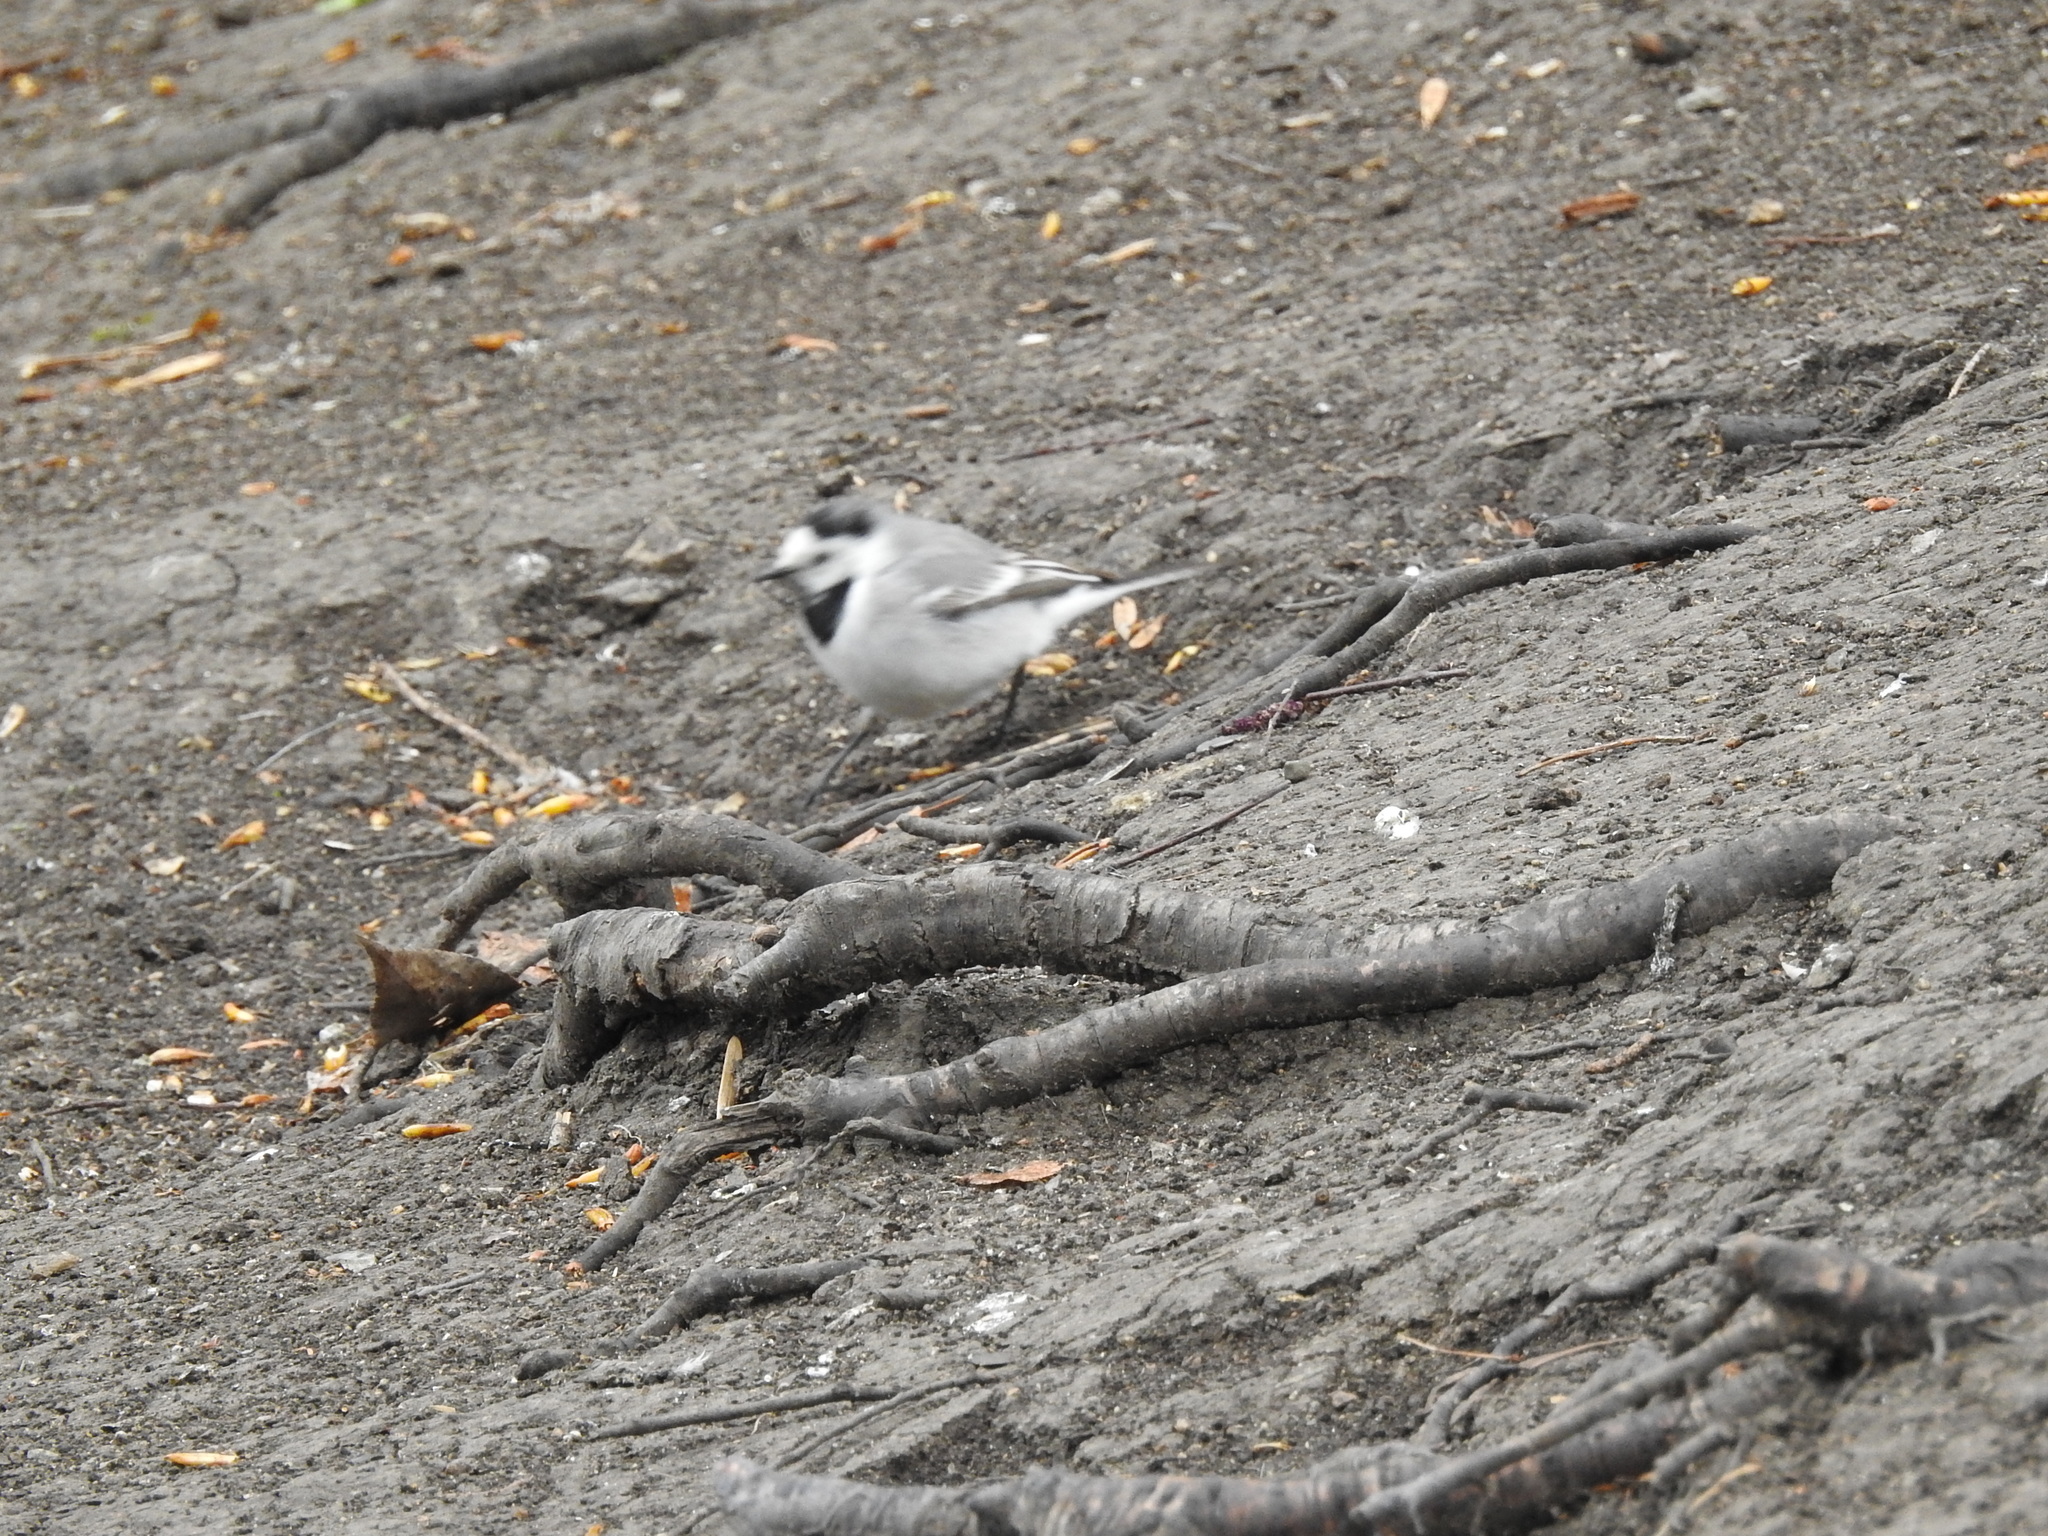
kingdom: Animalia
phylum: Chordata
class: Aves
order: Passeriformes
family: Motacillidae
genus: Motacilla
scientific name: Motacilla alba
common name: White wagtail
